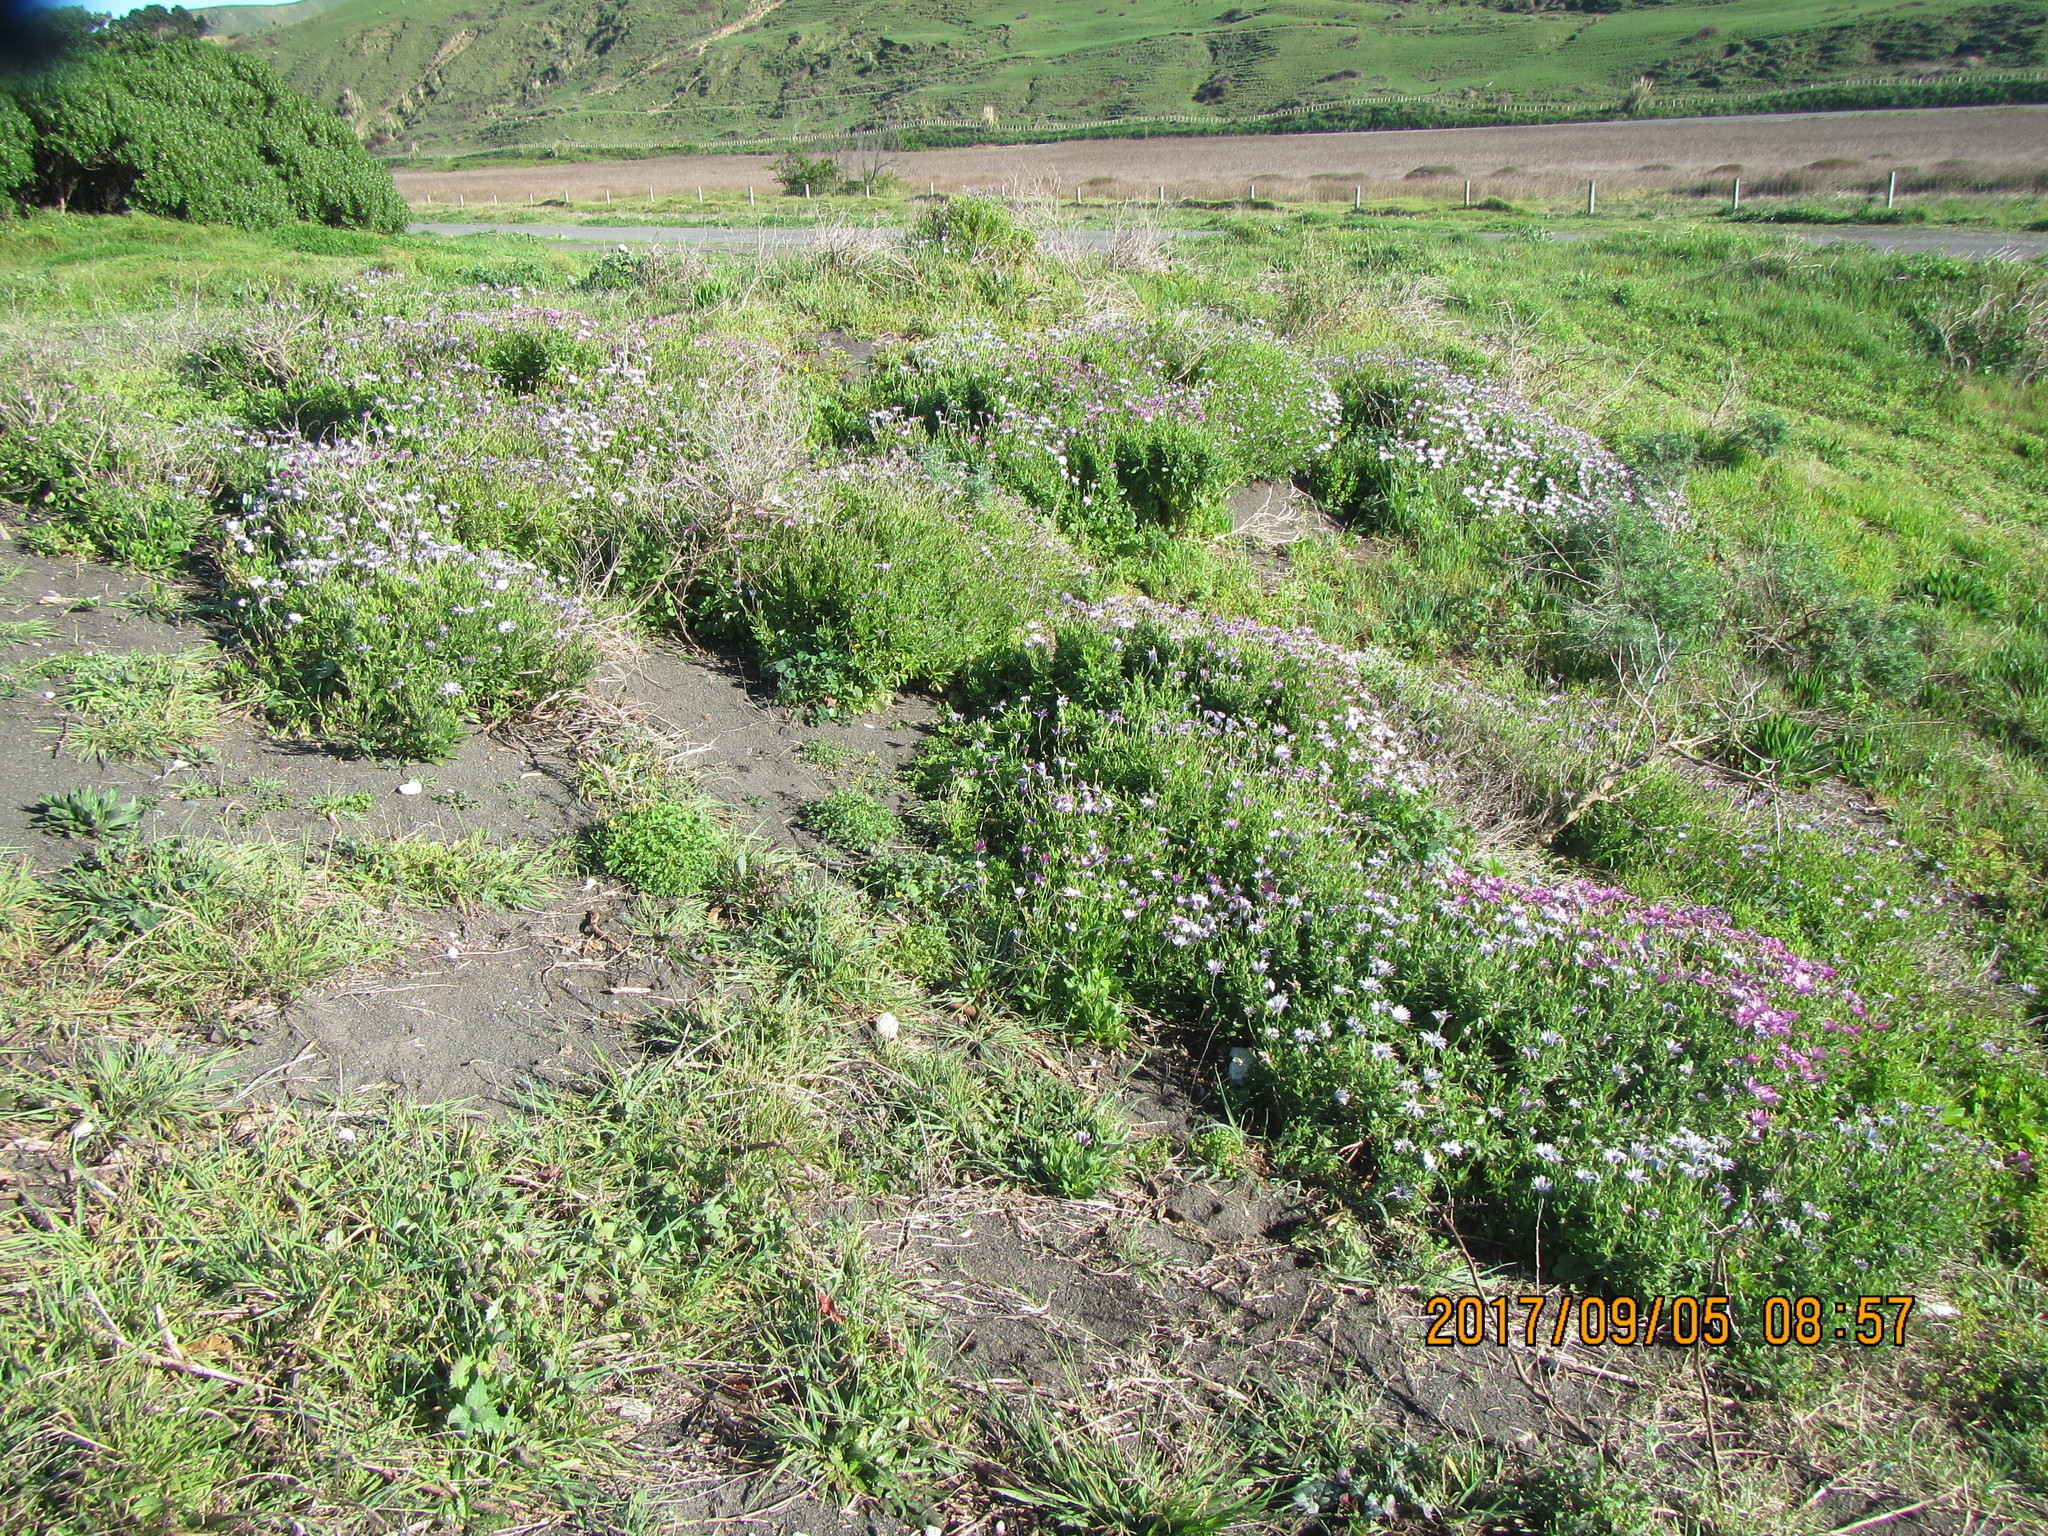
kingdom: Plantae
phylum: Tracheophyta
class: Magnoliopsida
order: Asterales
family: Asteraceae
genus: Sonchus
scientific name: Sonchus oleraceus
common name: Common sowthistle
